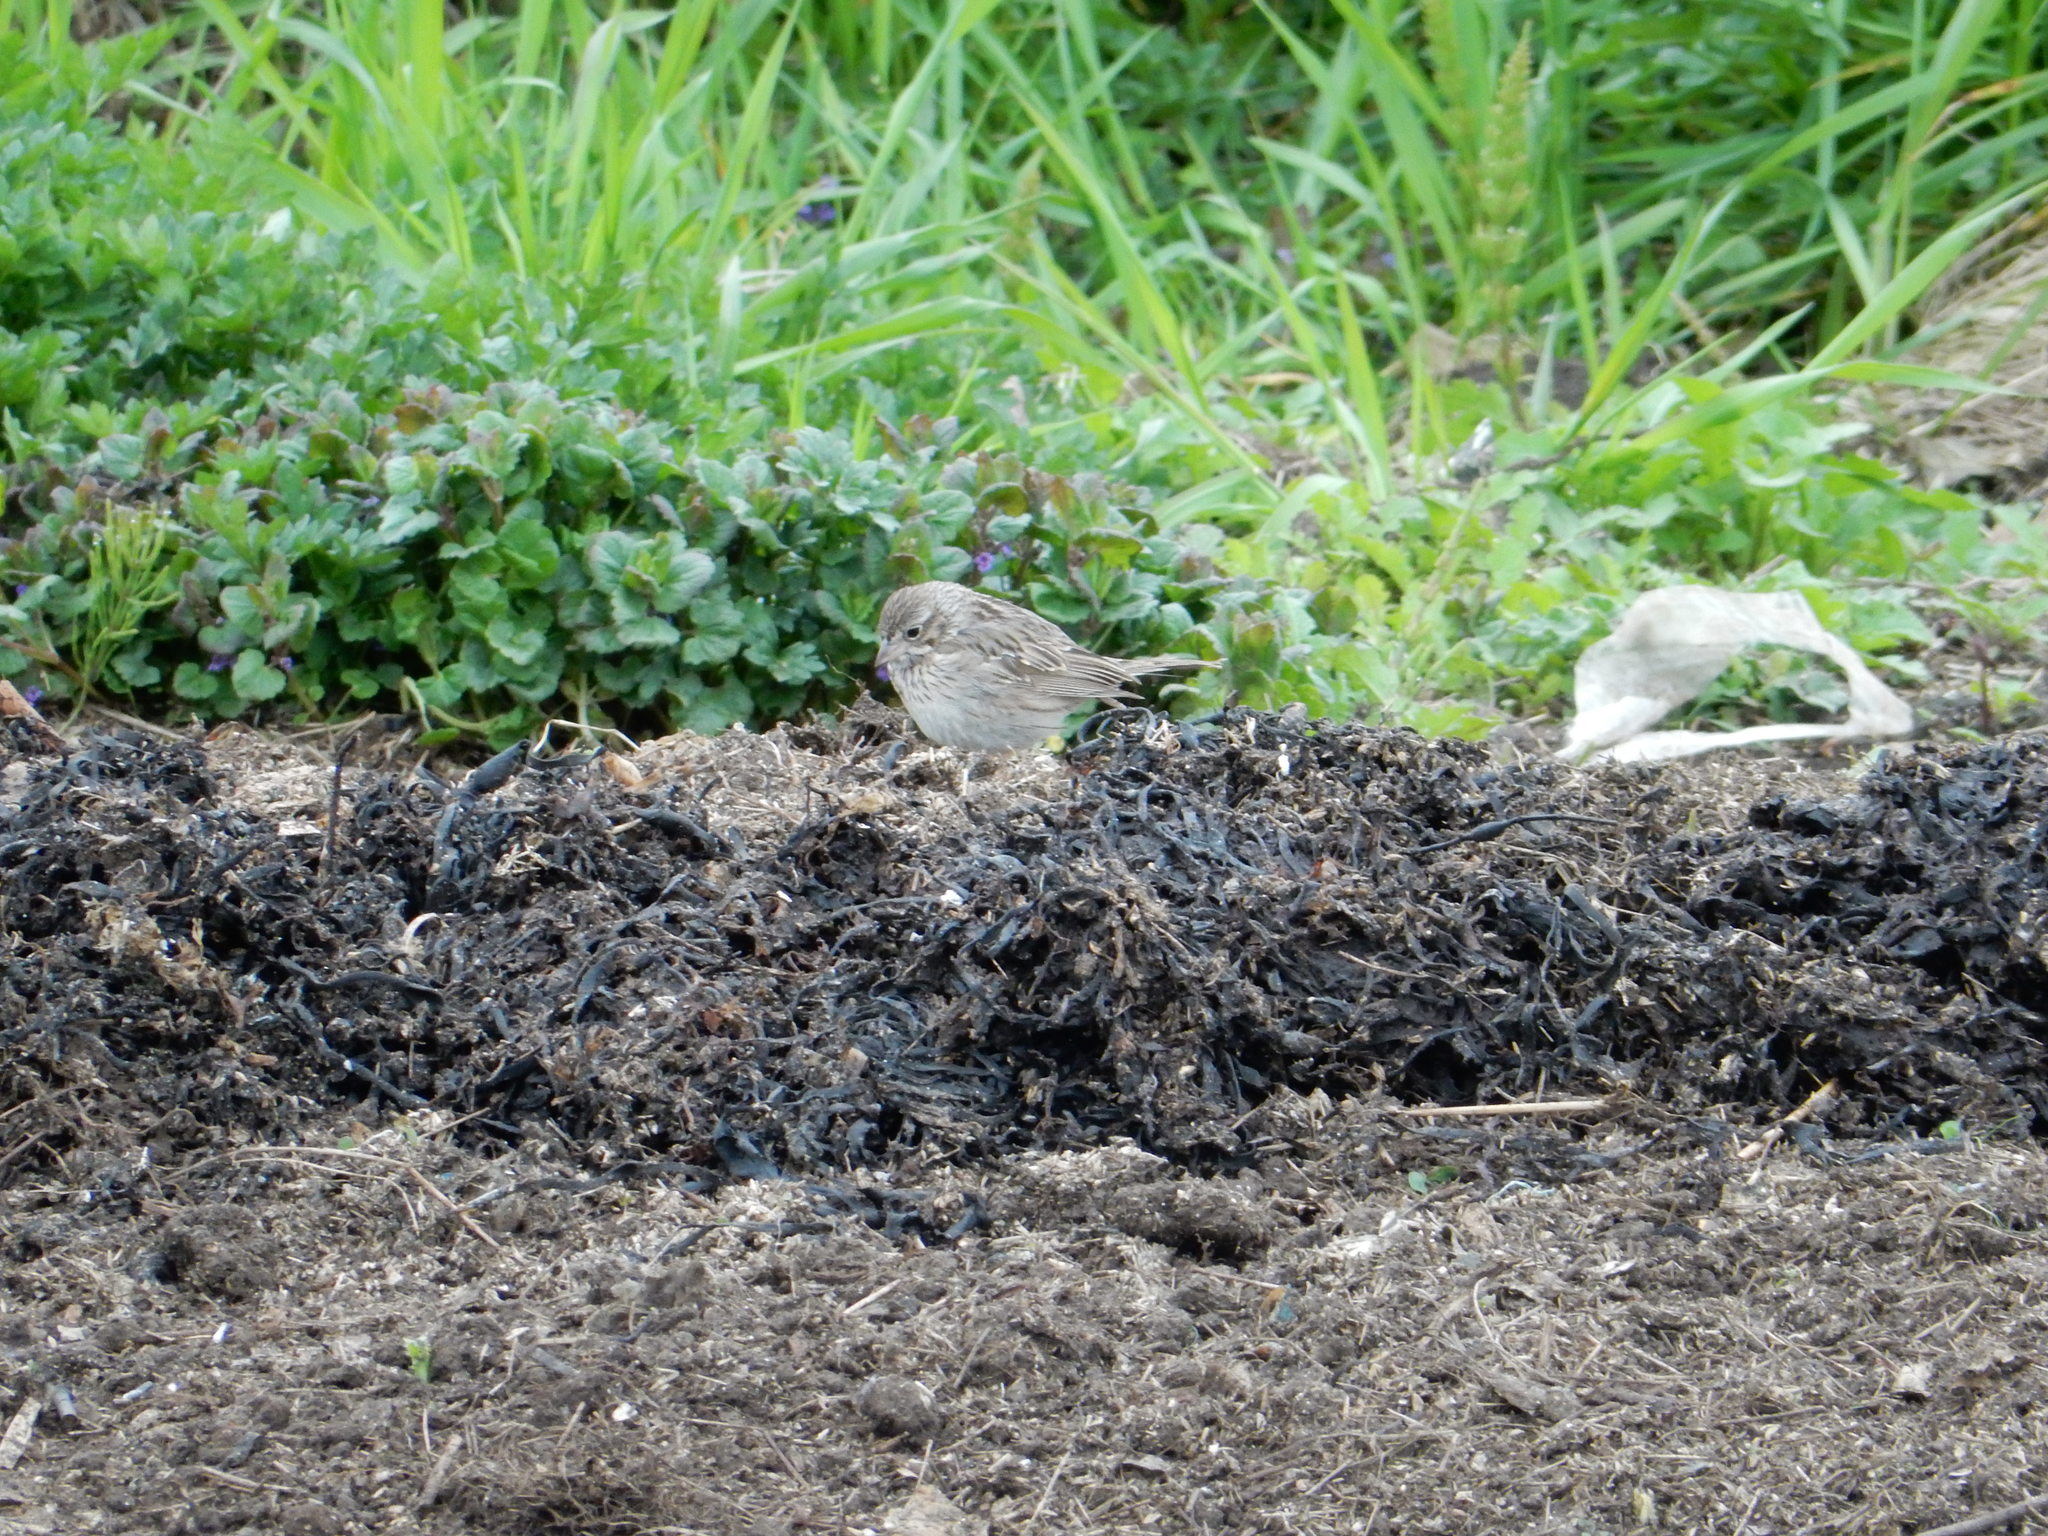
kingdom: Animalia
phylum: Chordata
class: Aves
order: Passeriformes
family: Passerellidae
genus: Pooecetes
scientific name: Pooecetes gramineus
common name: Vesper sparrow
